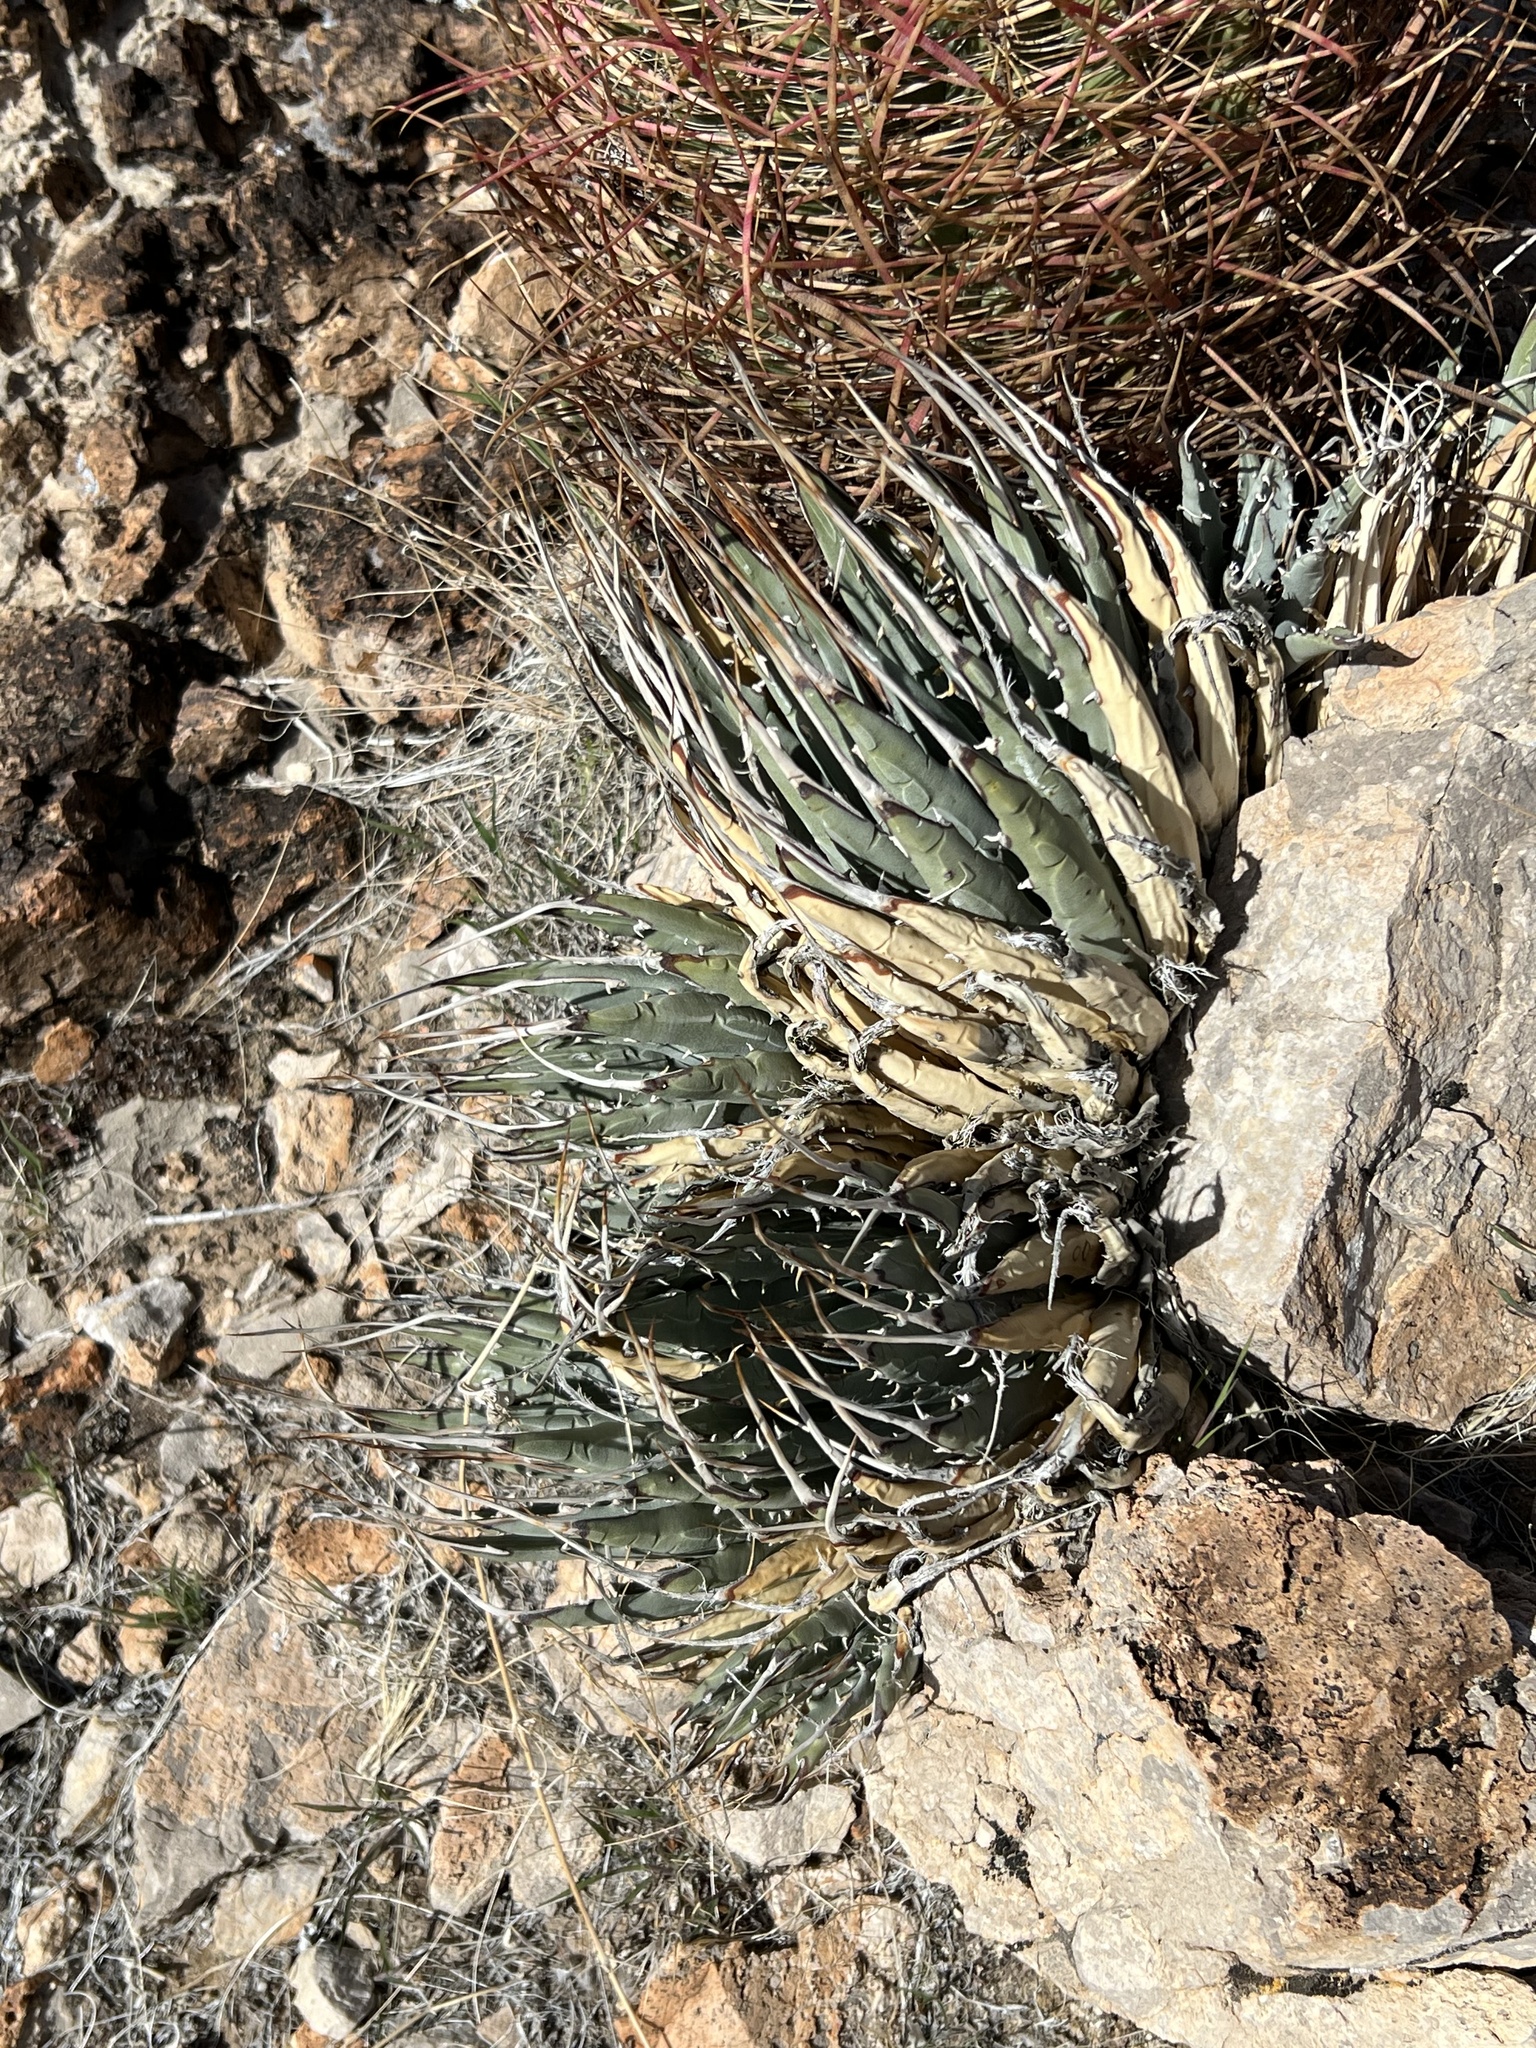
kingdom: Plantae
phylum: Tracheophyta
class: Liliopsida
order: Asparagales
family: Asparagaceae
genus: Agave
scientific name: Agave utahensis
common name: Utah agave
